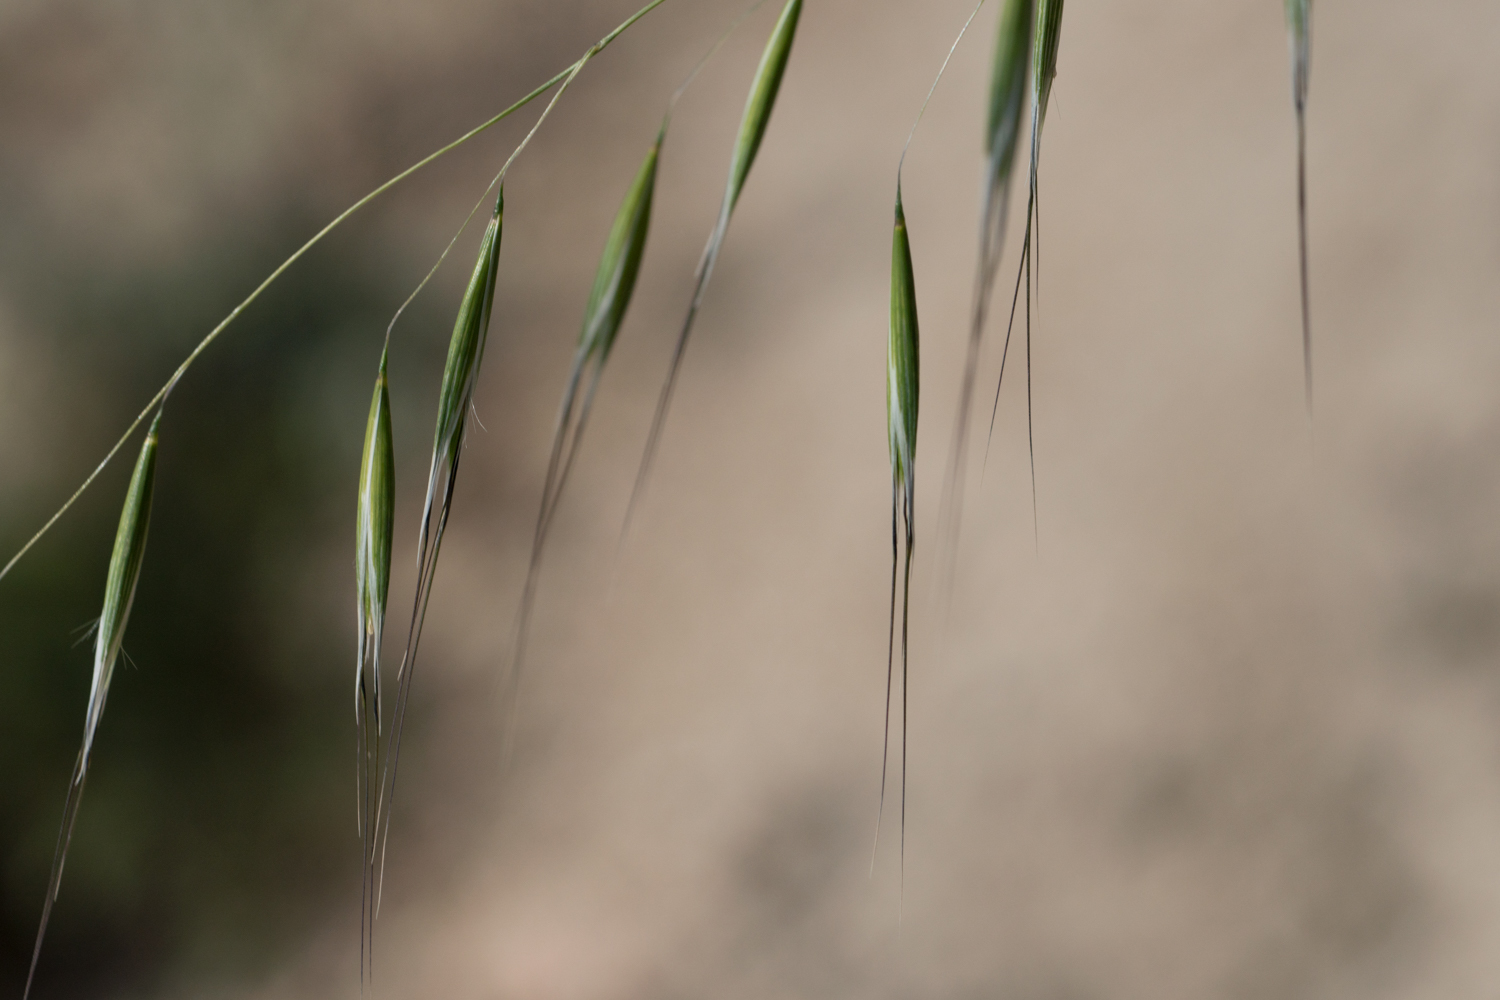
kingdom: Plantae
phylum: Tracheophyta
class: Liliopsida
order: Poales
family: Poaceae
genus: Avena
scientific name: Avena barbata
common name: Slender oat
